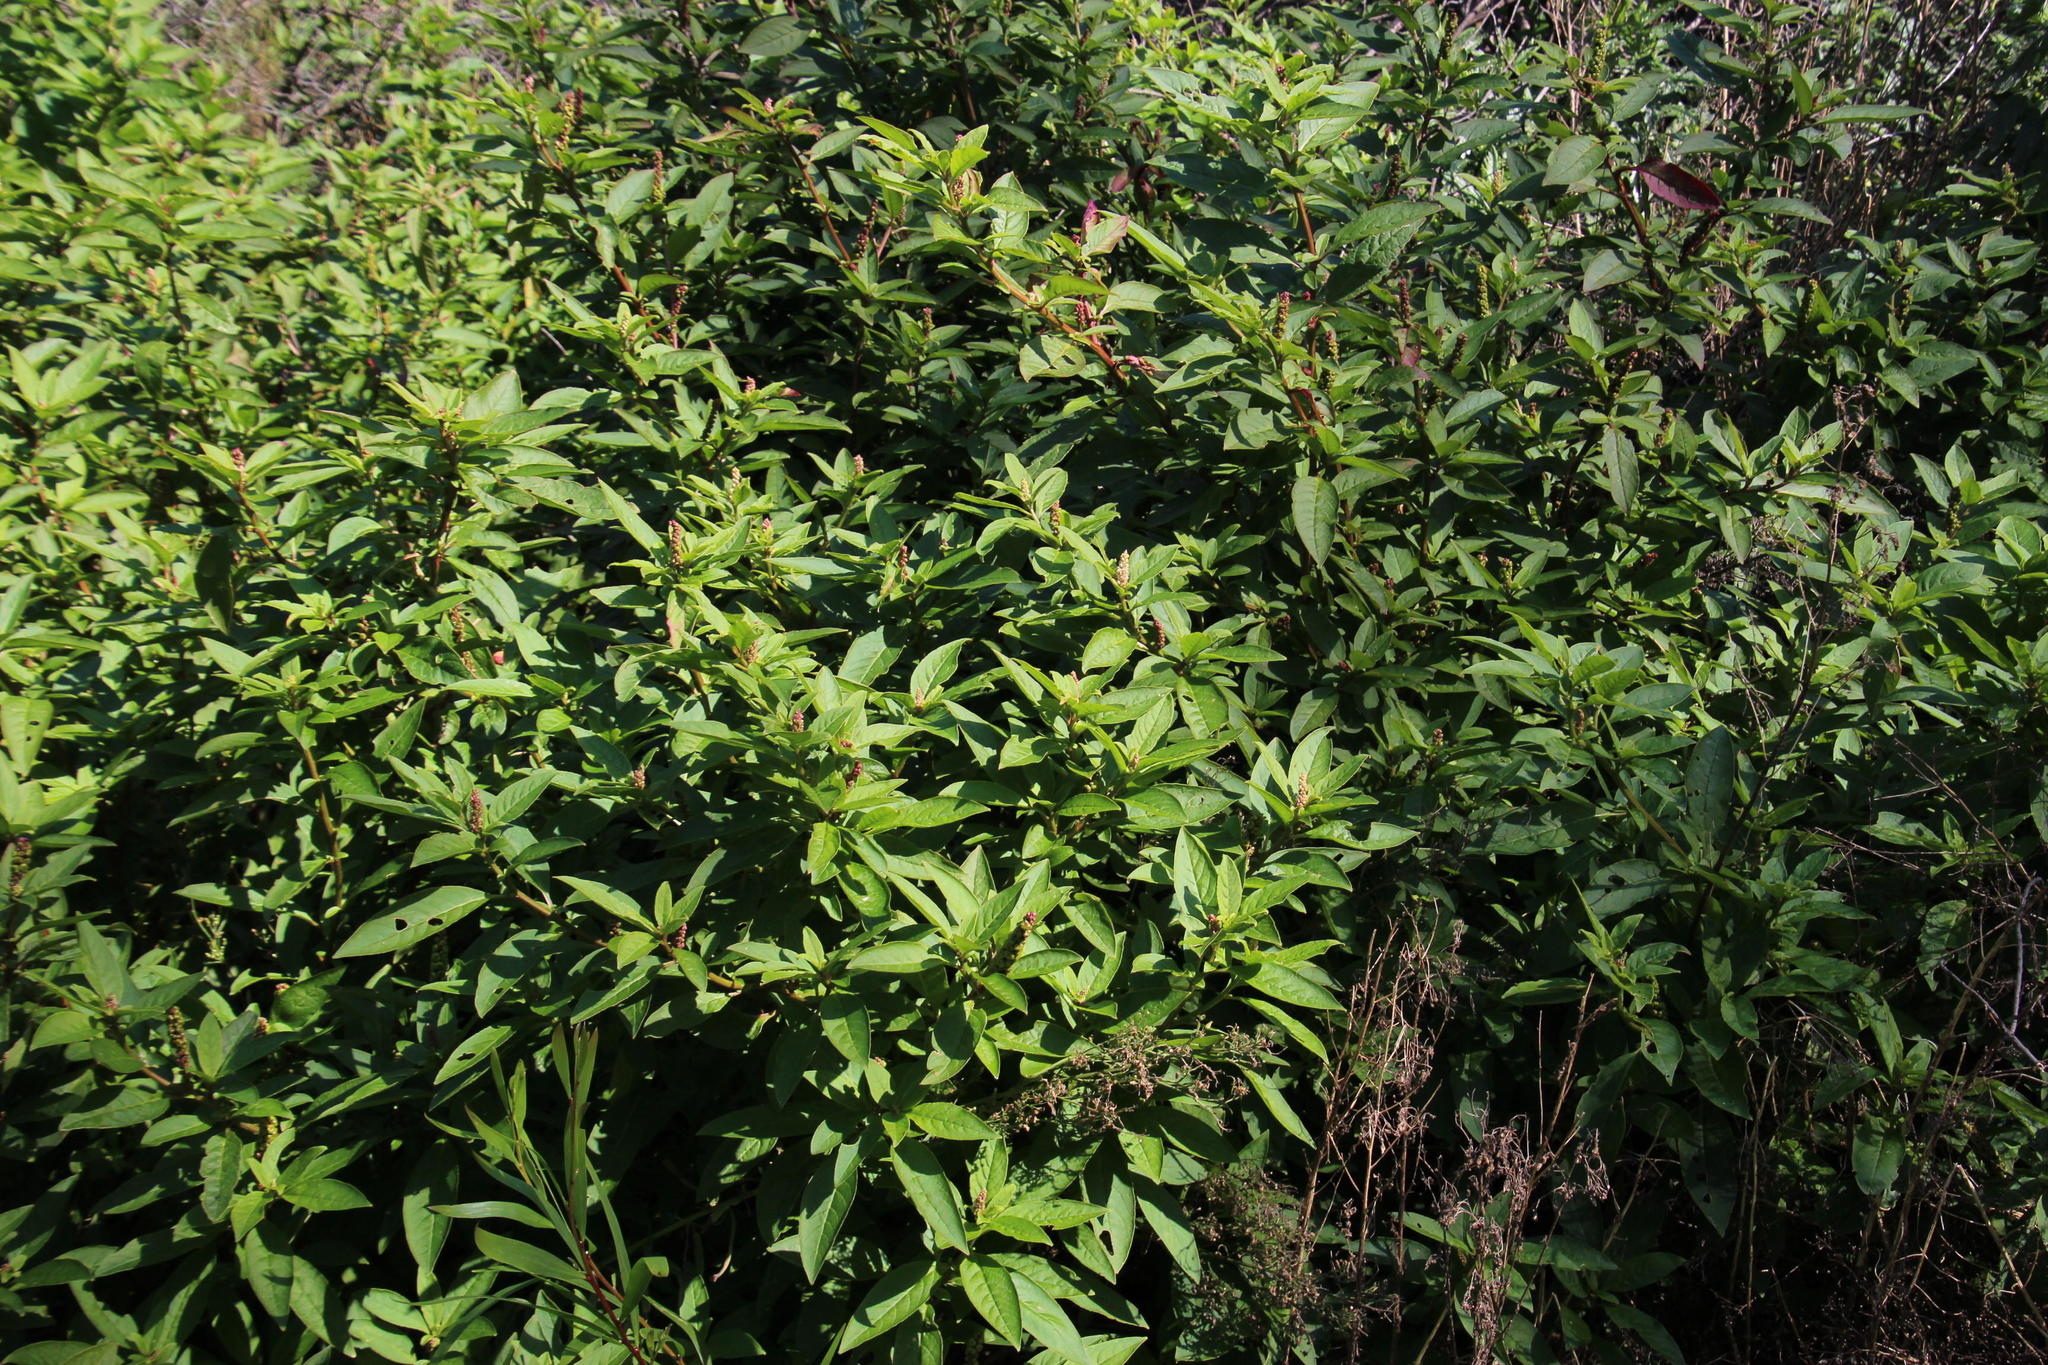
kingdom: Plantae
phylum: Tracheophyta
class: Magnoliopsida
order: Caryophyllales
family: Phytolaccaceae
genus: Phytolacca
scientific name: Phytolacca icosandra
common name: Button pokeweed
